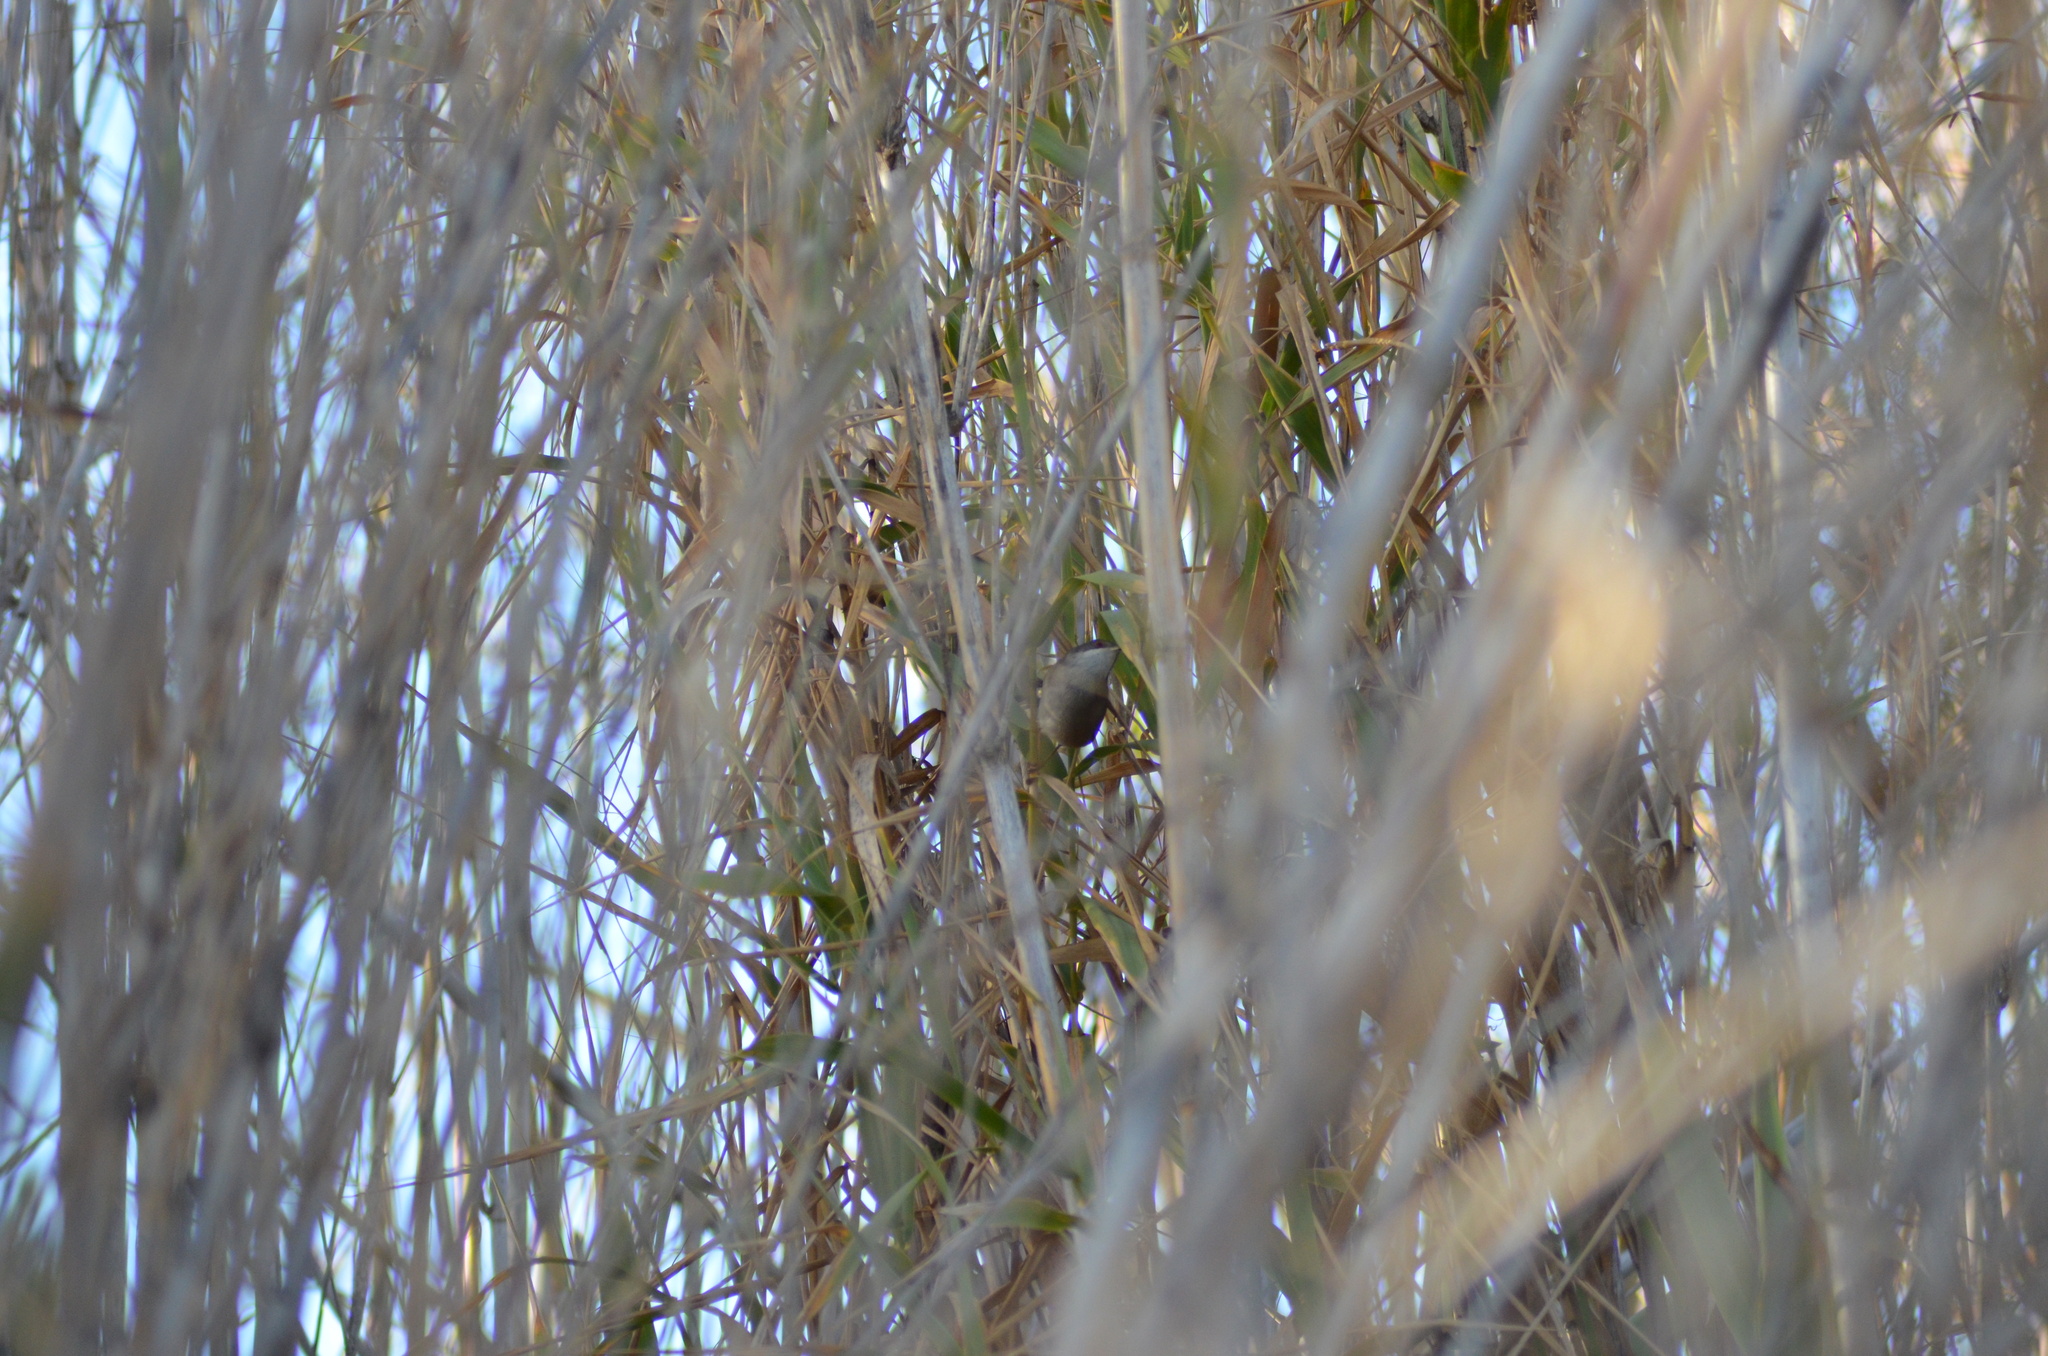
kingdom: Animalia
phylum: Chordata
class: Aves
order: Passeriformes
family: Sylviidae
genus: Curruca
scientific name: Curruca melanocephala
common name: Sardinian warbler
